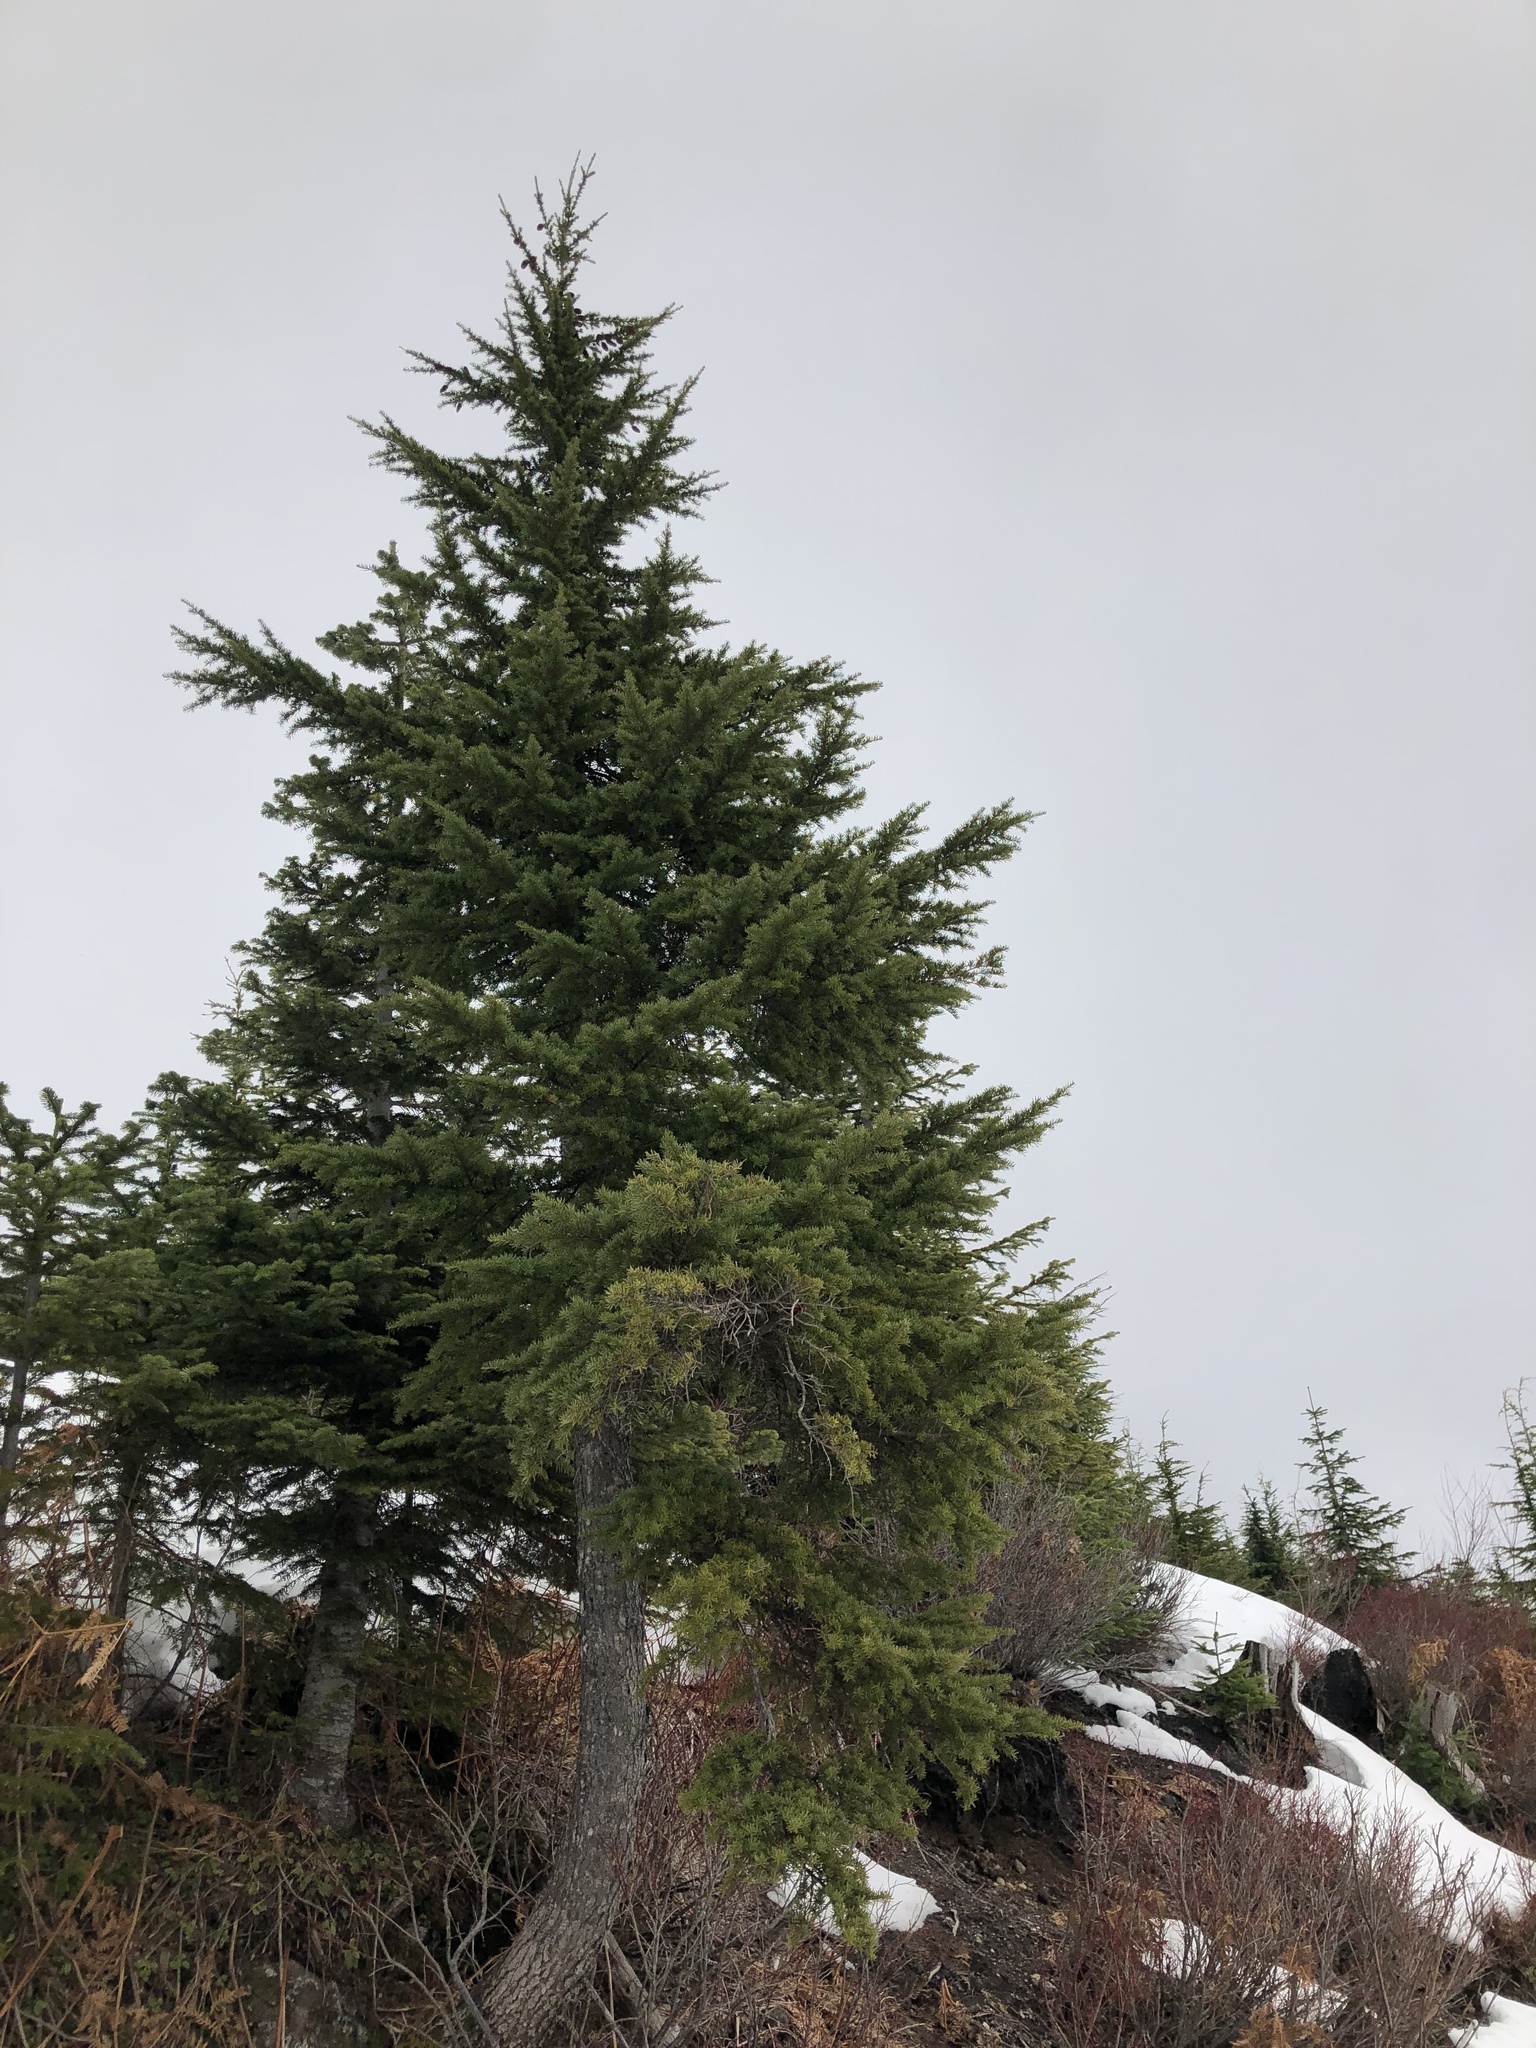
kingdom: Plantae
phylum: Tracheophyta
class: Pinopsida
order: Pinales
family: Pinaceae
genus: Tsuga
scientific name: Tsuga mertensiana
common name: Mountain hemlock
